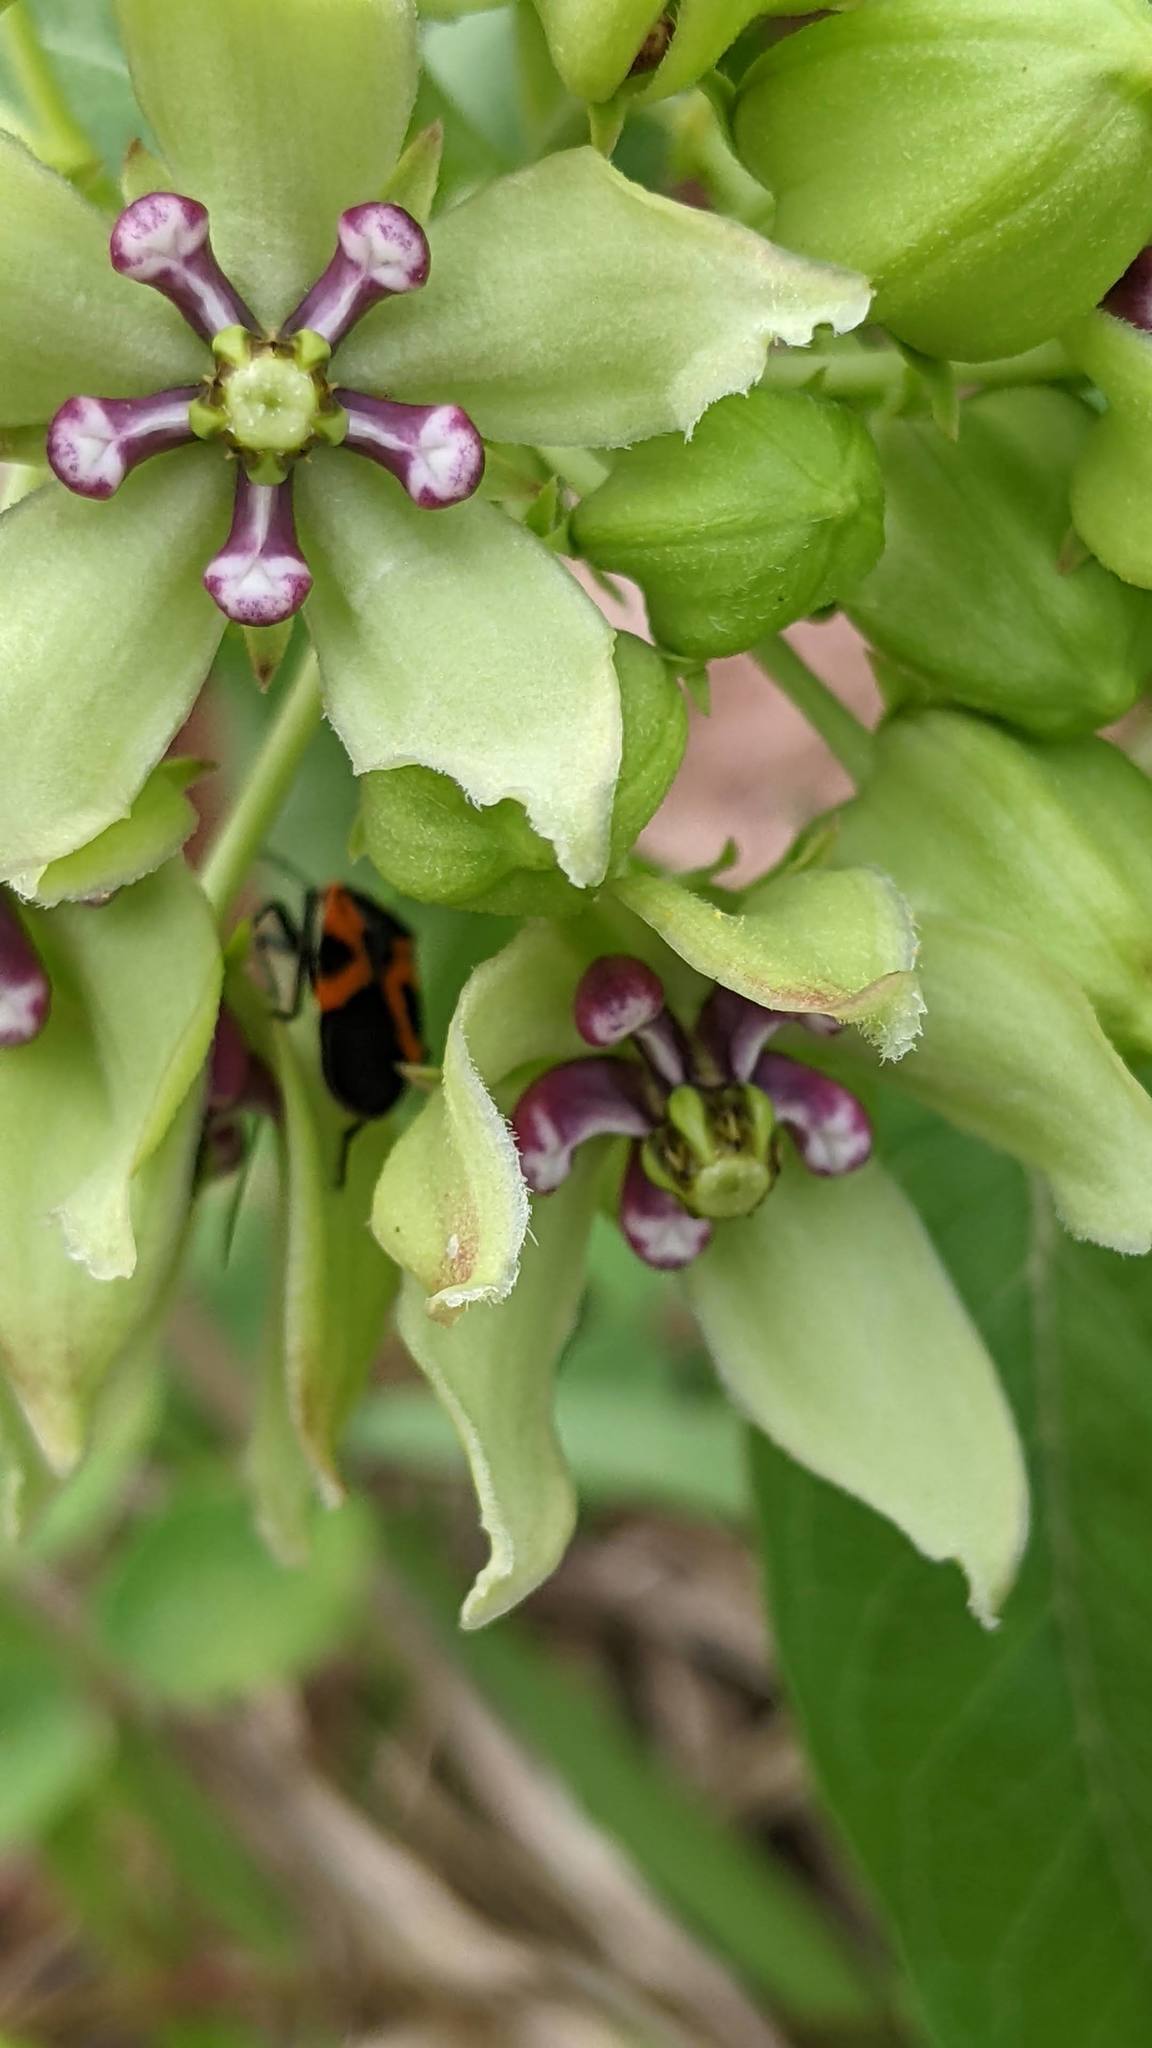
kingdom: Animalia
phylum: Arthropoda
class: Insecta
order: Hemiptera
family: Lygaeidae
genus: Lygaeus
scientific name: Lygaeus turcicus
